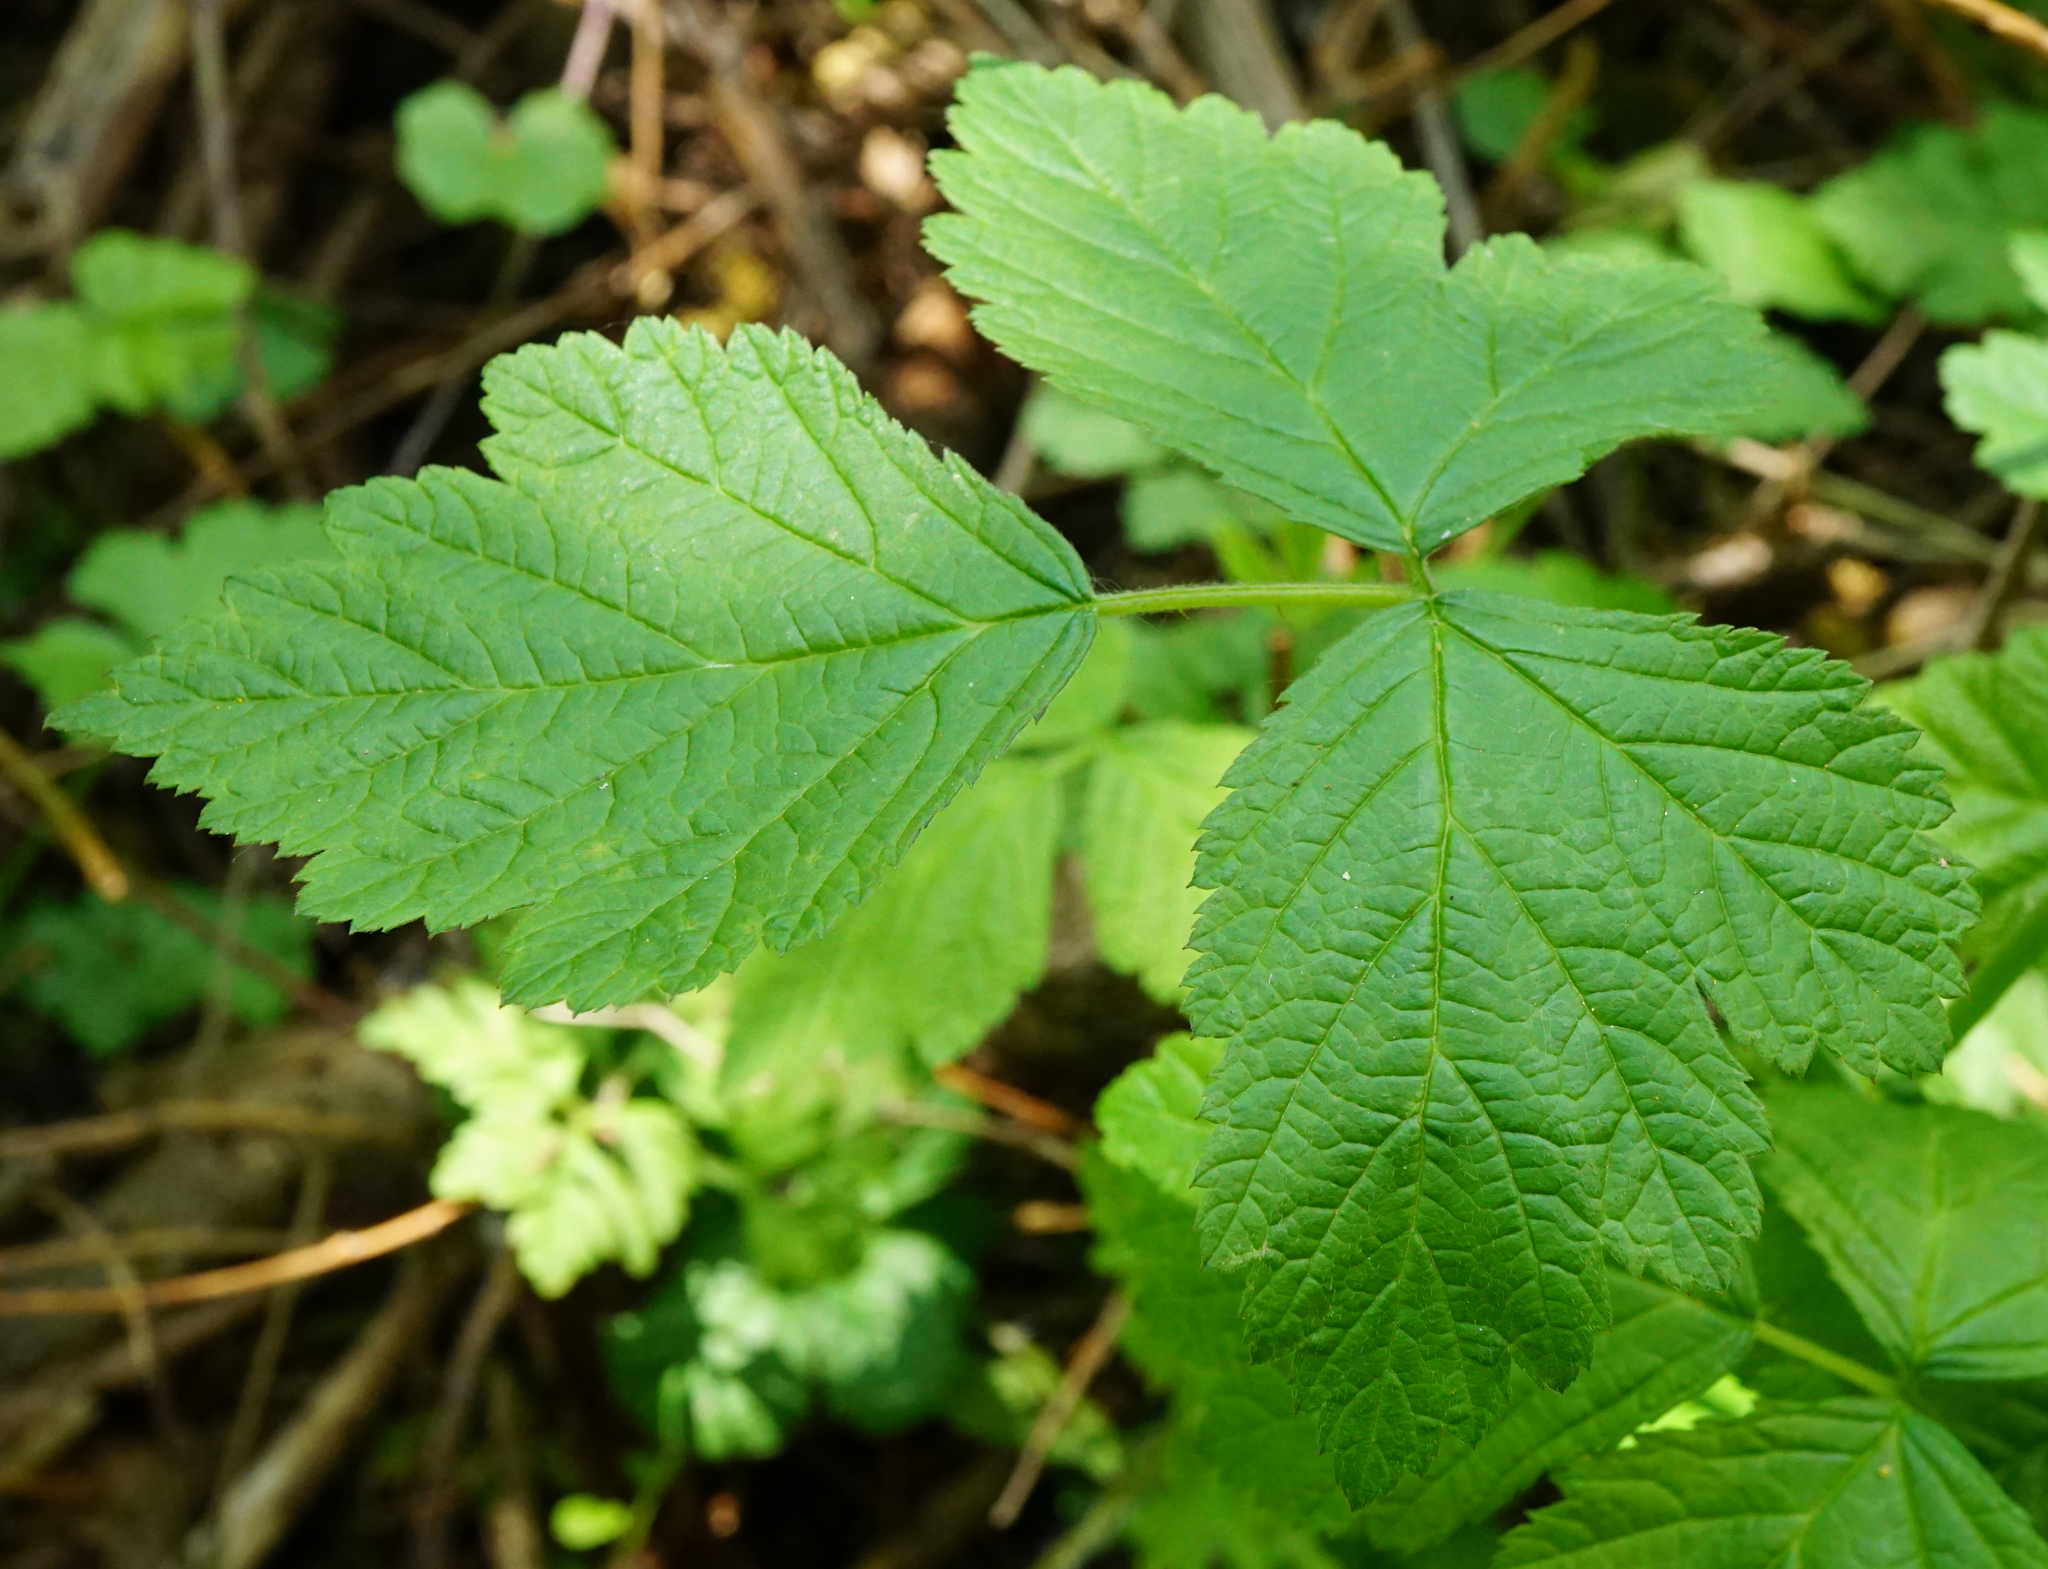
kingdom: Plantae
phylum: Tracheophyta
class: Magnoliopsida
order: Rosales
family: Rosaceae
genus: Rubus
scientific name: Rubus caesius
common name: Dewberry
